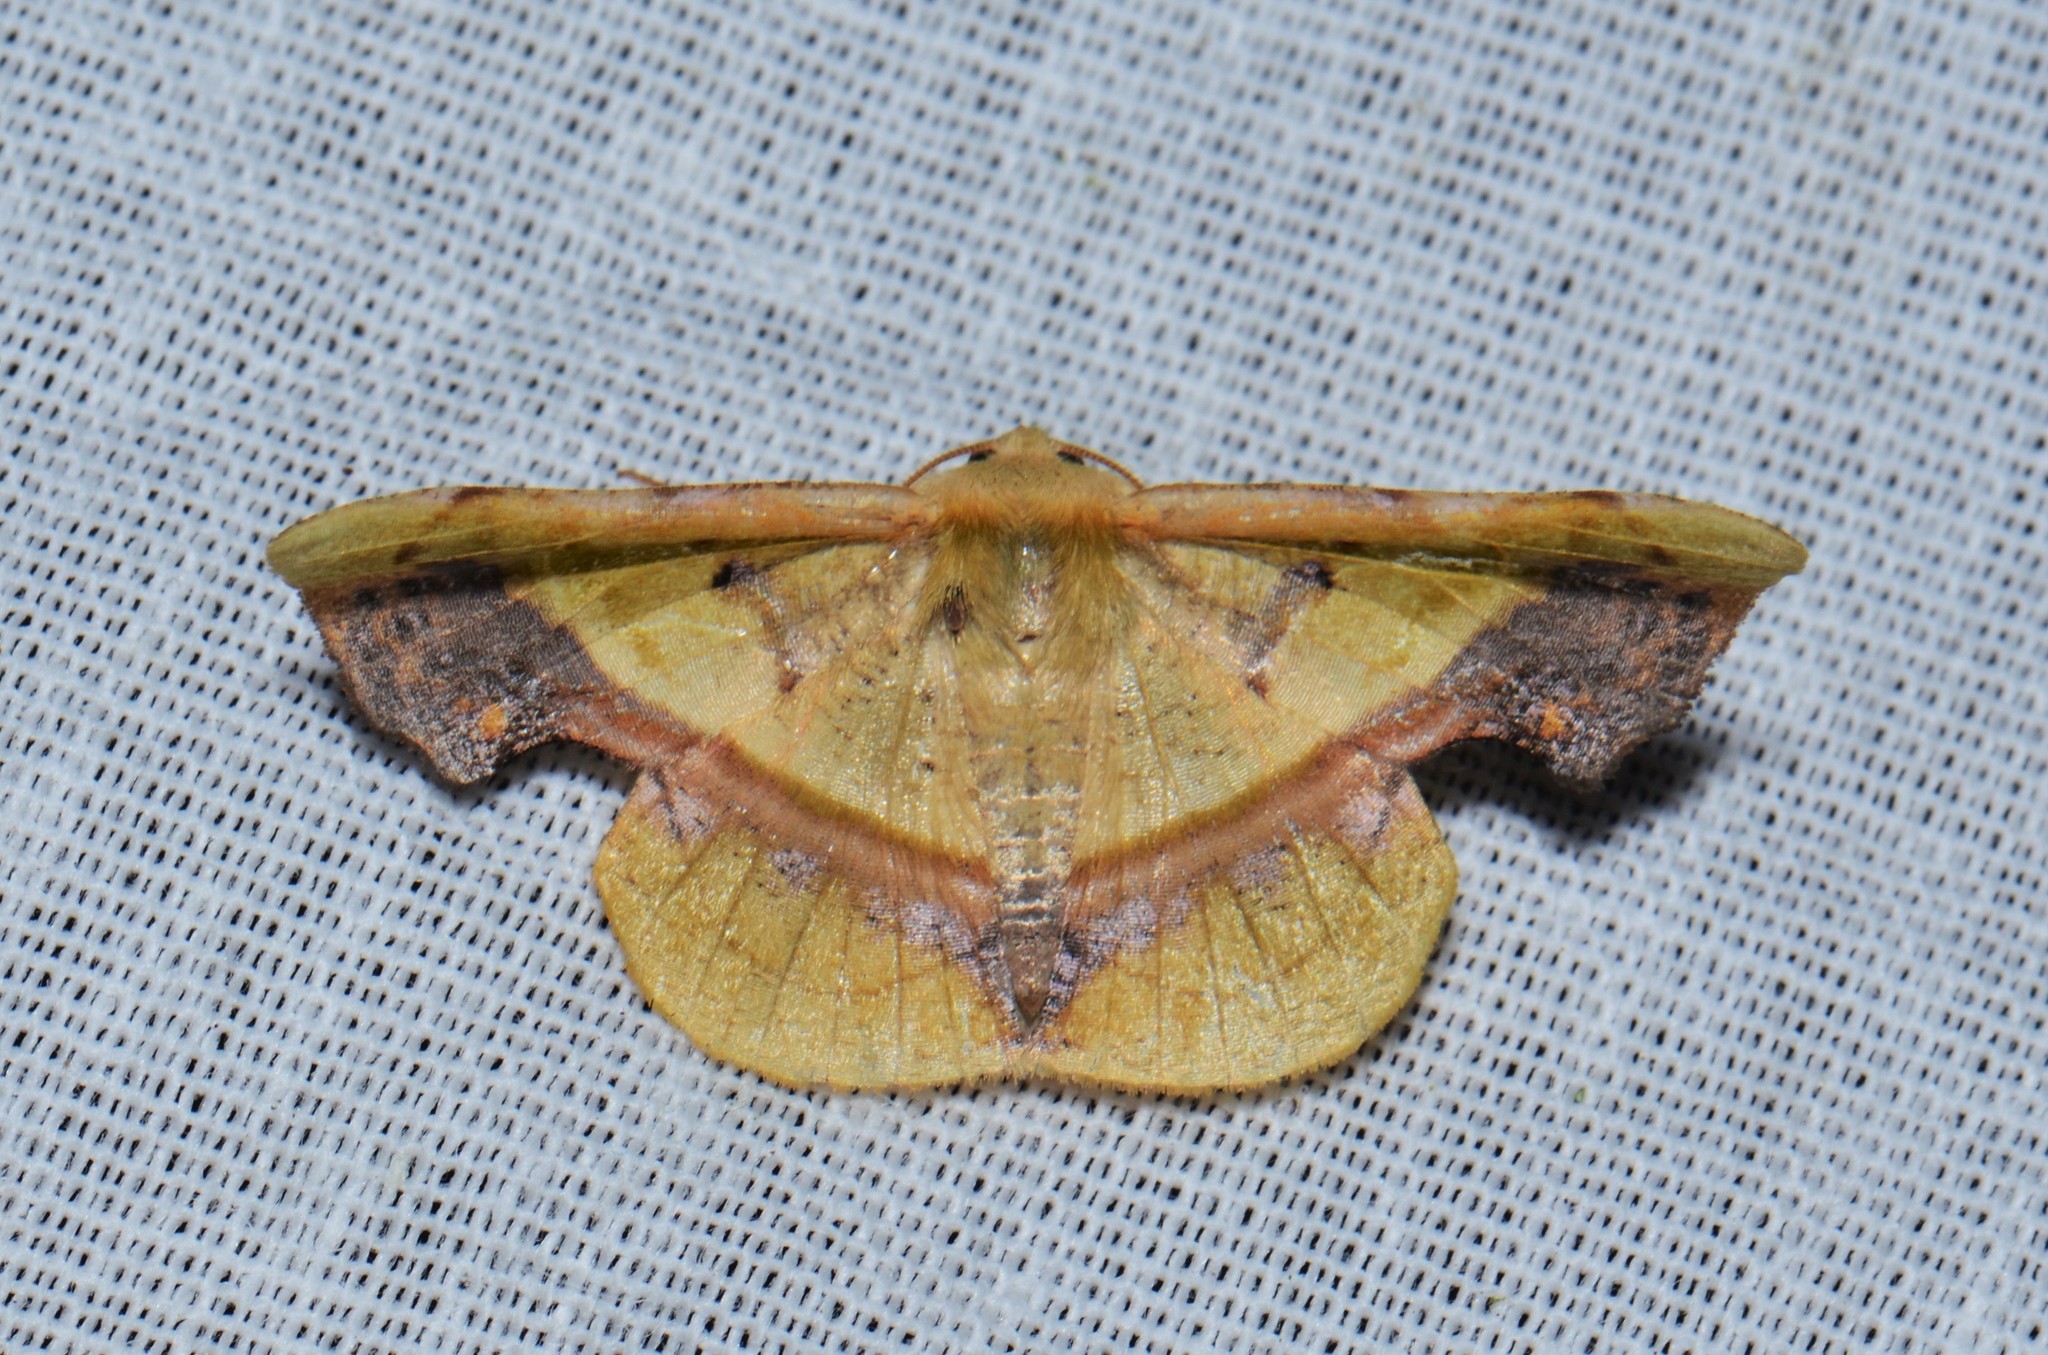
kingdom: Animalia
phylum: Arthropoda
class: Insecta
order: Lepidoptera
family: Geometridae
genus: Fascellina
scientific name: Fascellina plagiata
